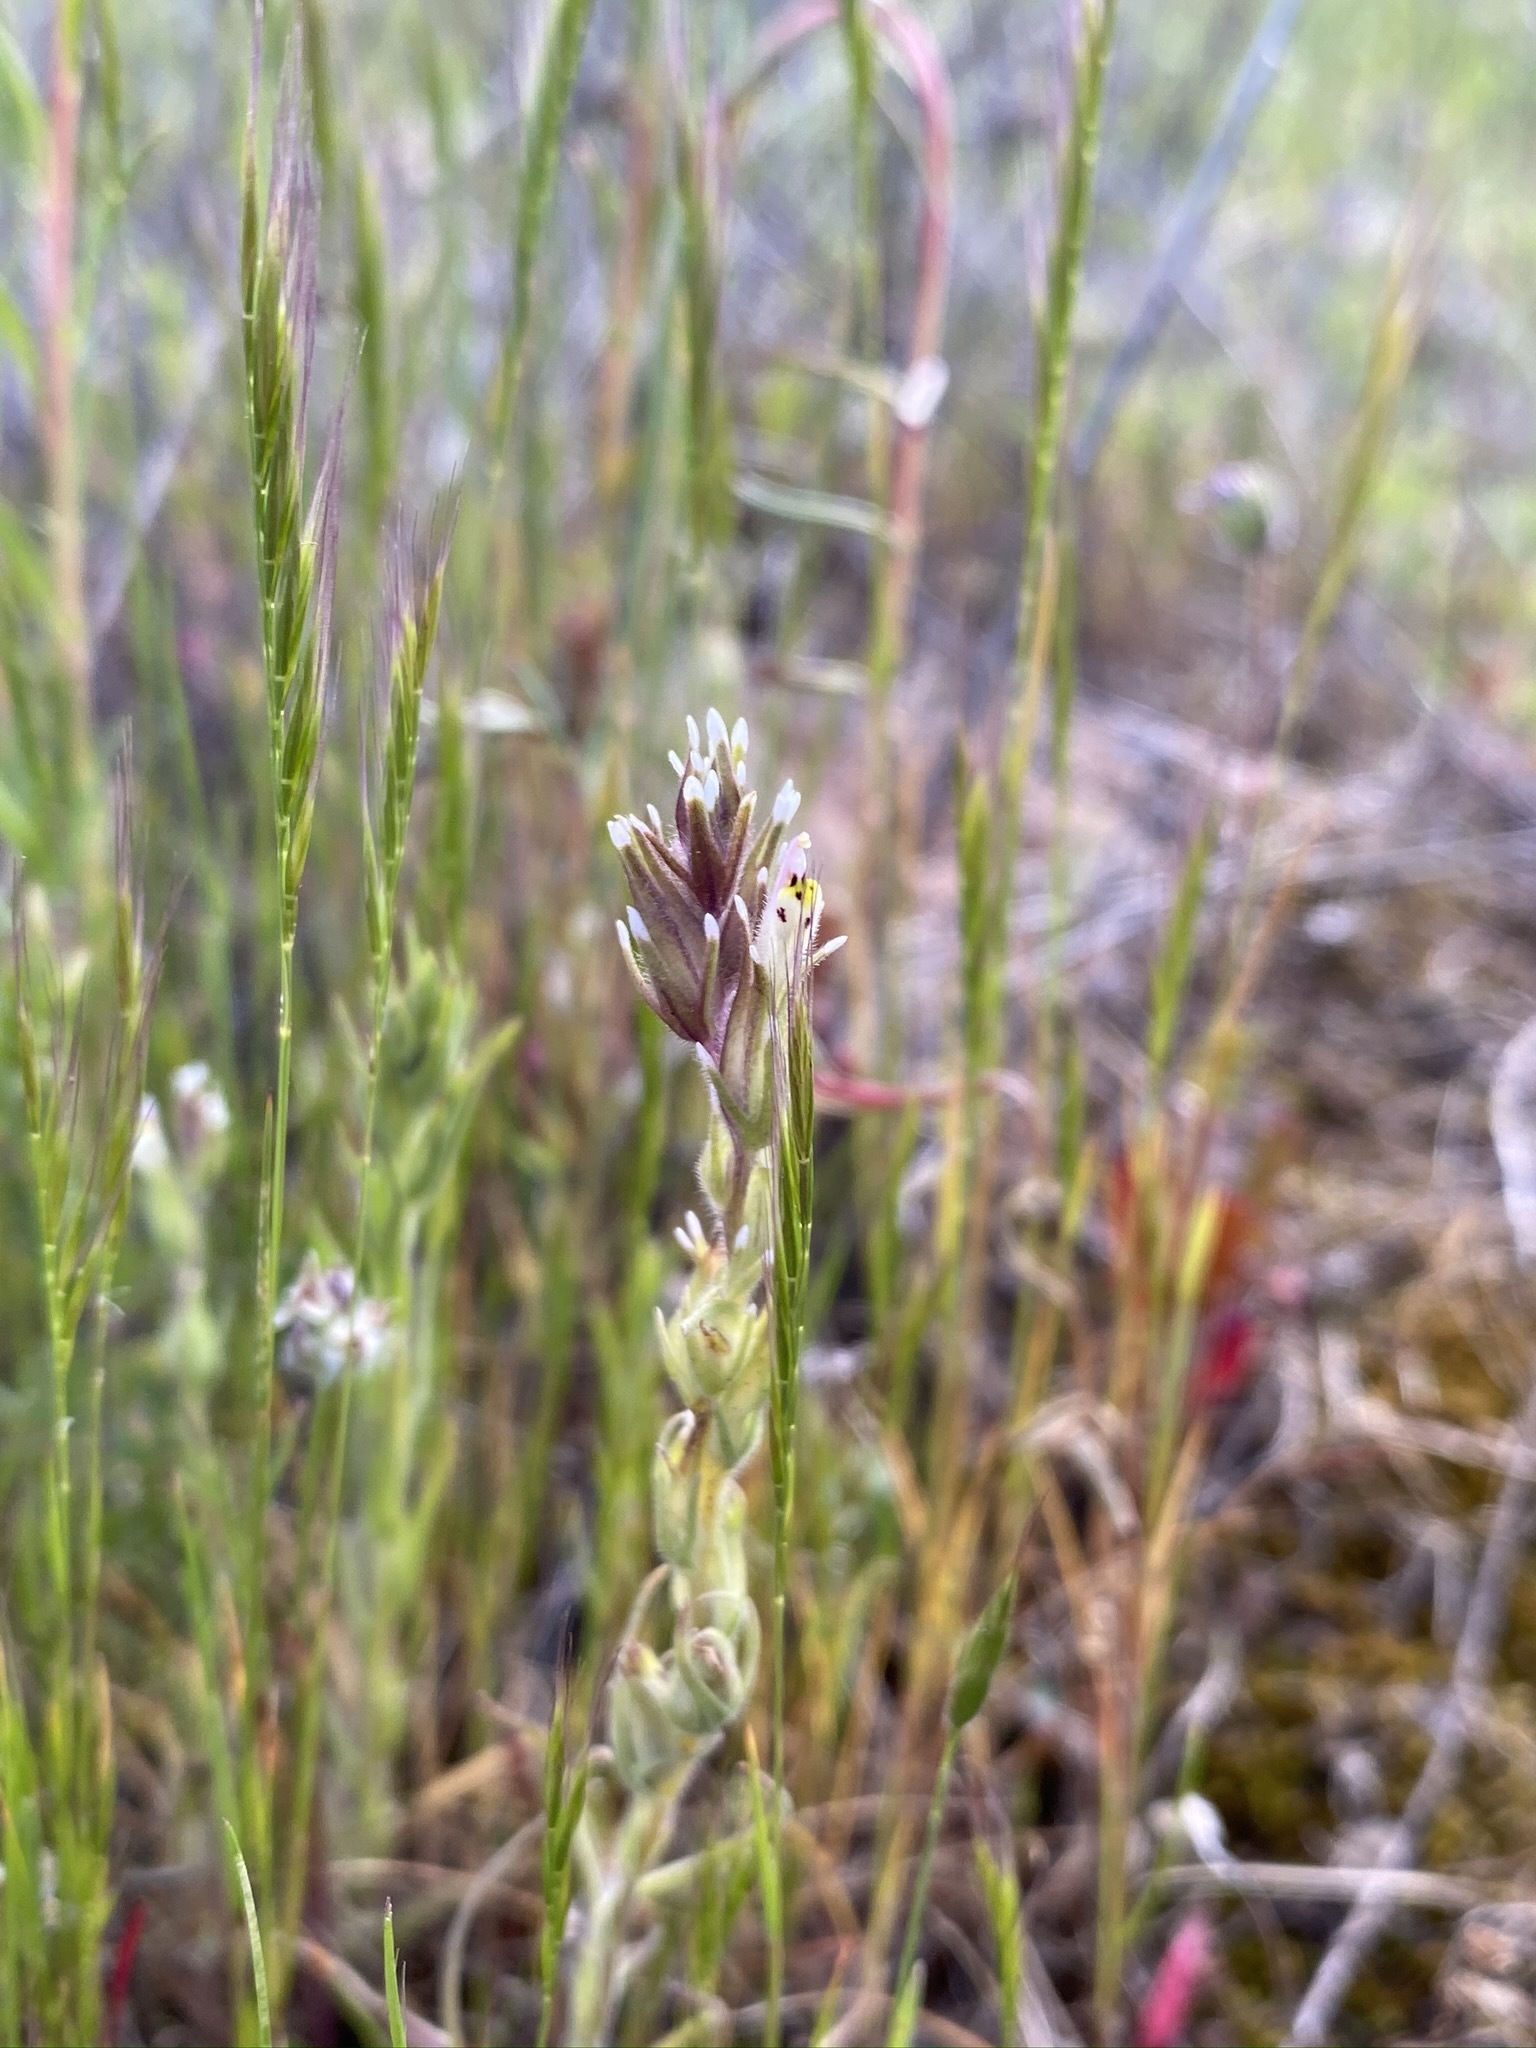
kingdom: Plantae
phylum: Tracheophyta
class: Magnoliopsida
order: Lamiales
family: Orobanchaceae
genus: Castilleja
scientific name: Castilleja attenuata
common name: Valley tassels
